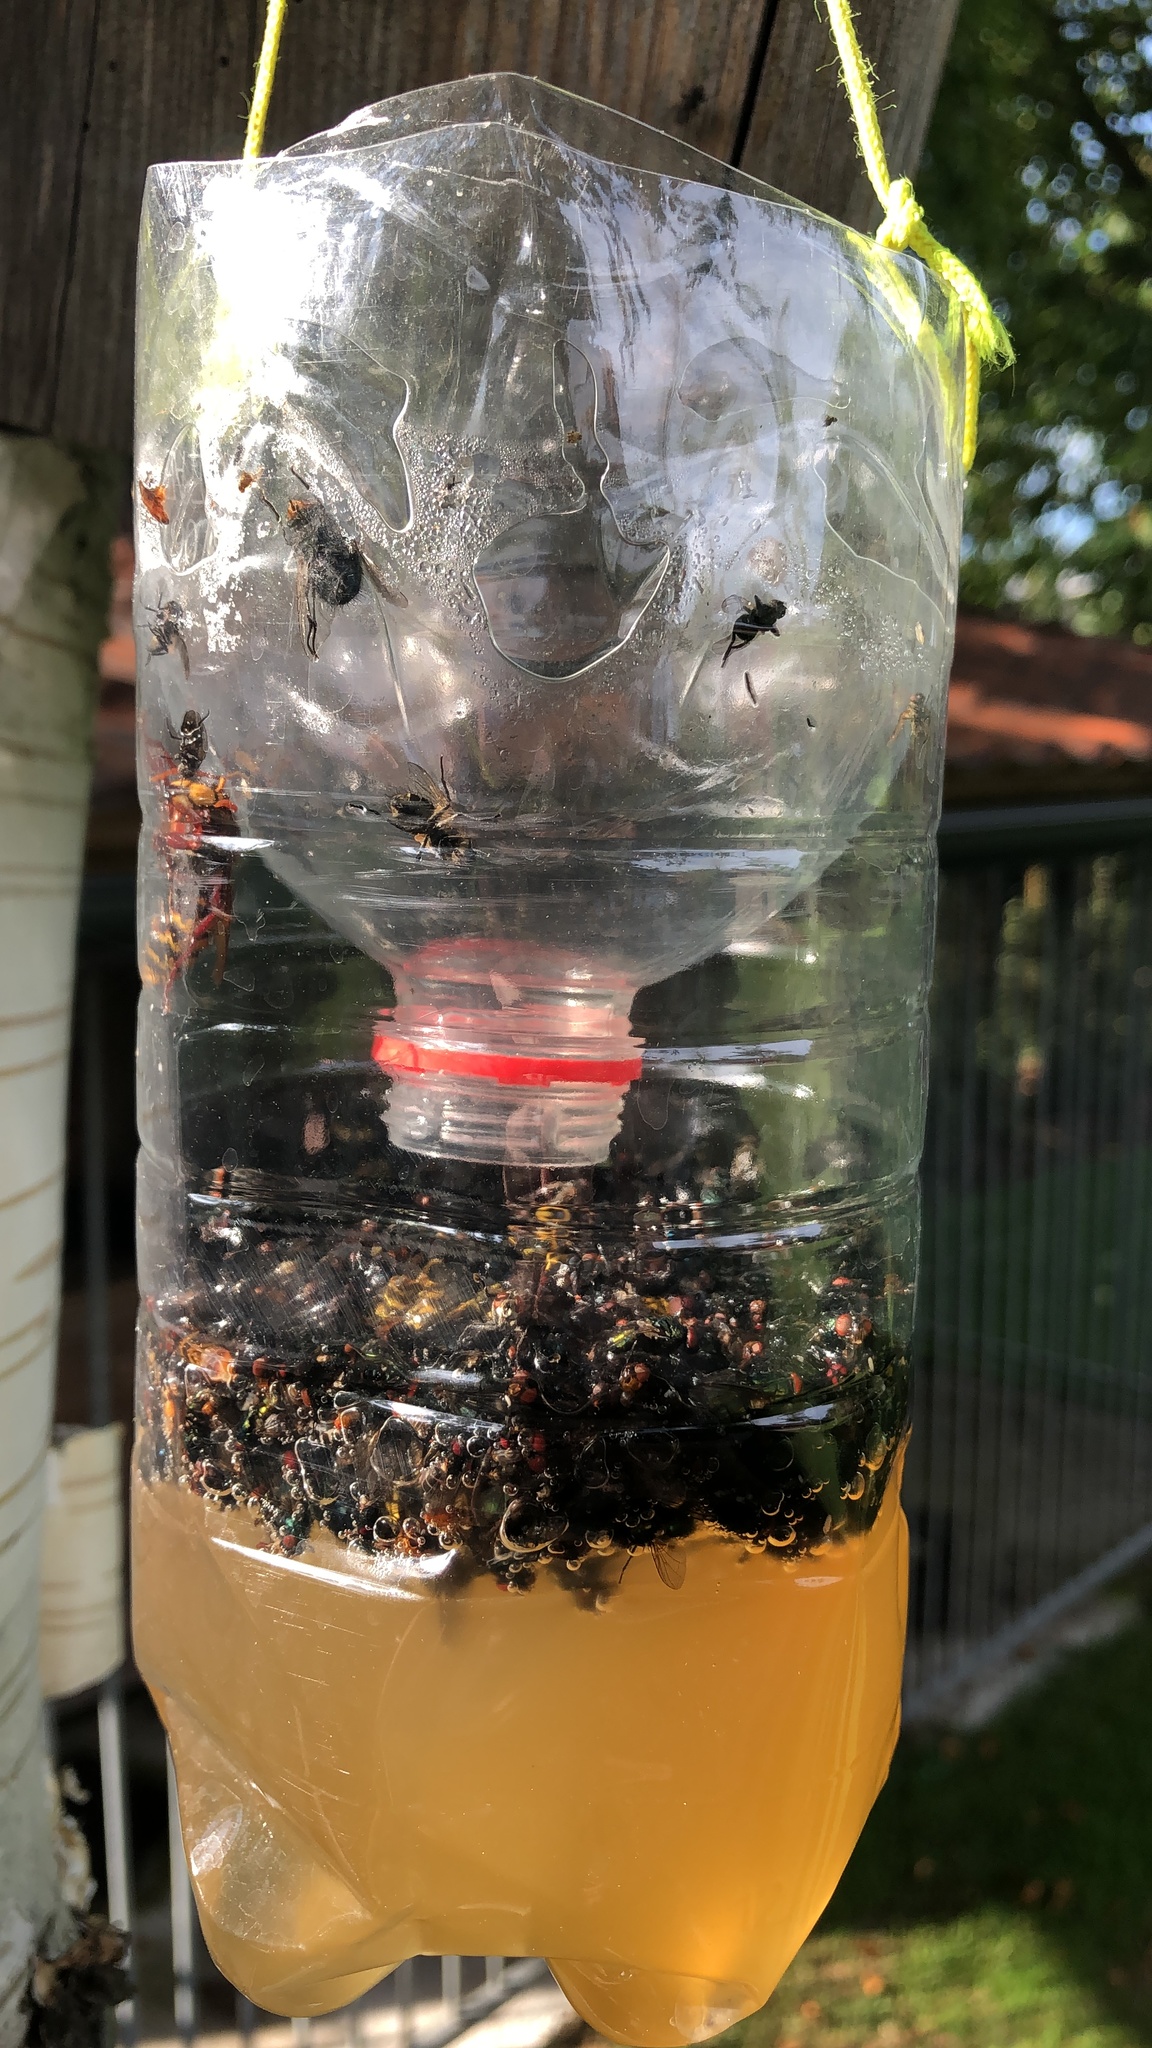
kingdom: Animalia
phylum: Arthropoda
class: Insecta
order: Hymenoptera
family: Vespidae
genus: Vespa
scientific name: Vespa crabro
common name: Hornet
